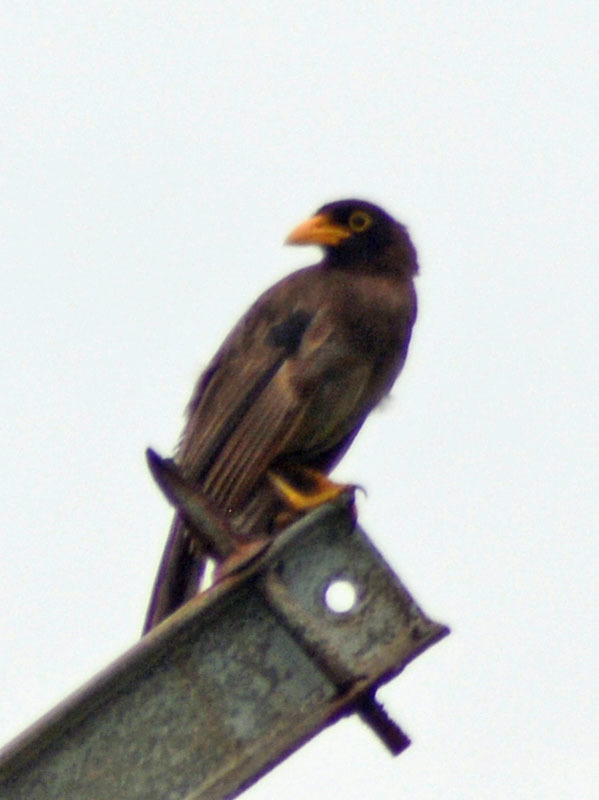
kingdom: Animalia
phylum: Chordata
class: Aves
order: Passeriformes
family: Corvidae
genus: Psilorhinus
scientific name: Psilorhinus morio
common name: Brown jay
